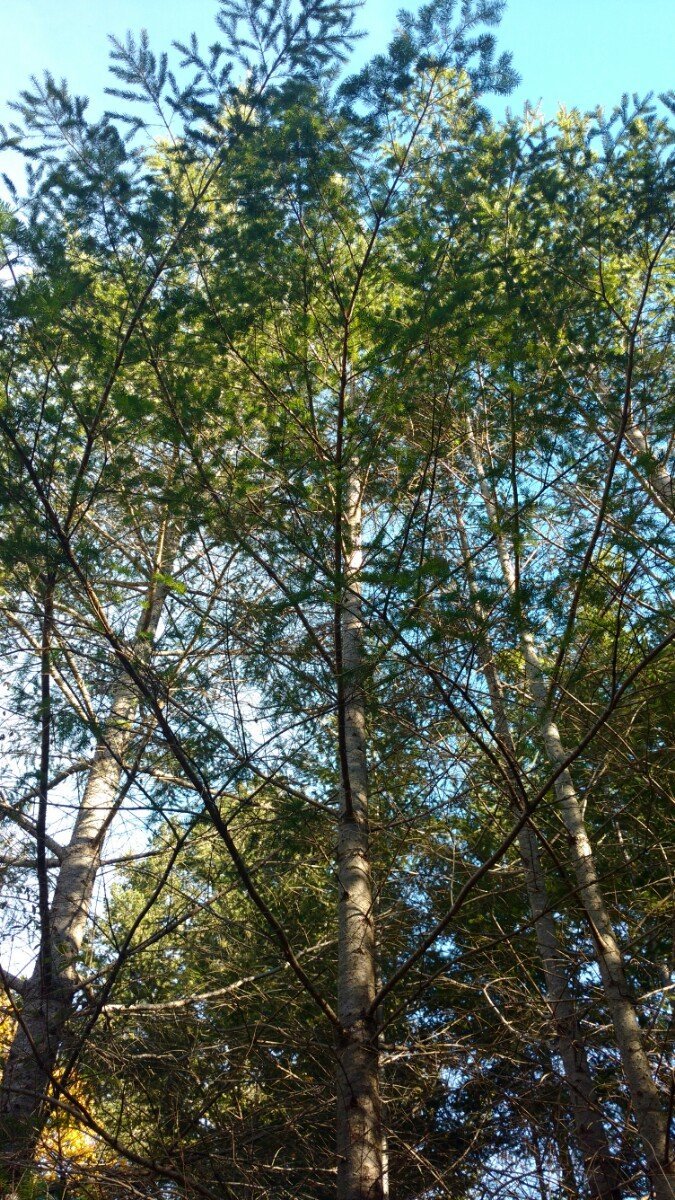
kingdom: Plantae
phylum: Tracheophyta
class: Pinopsida
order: Pinales
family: Pinaceae
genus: Pseudotsuga
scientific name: Pseudotsuga menziesii
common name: Douglas fir
